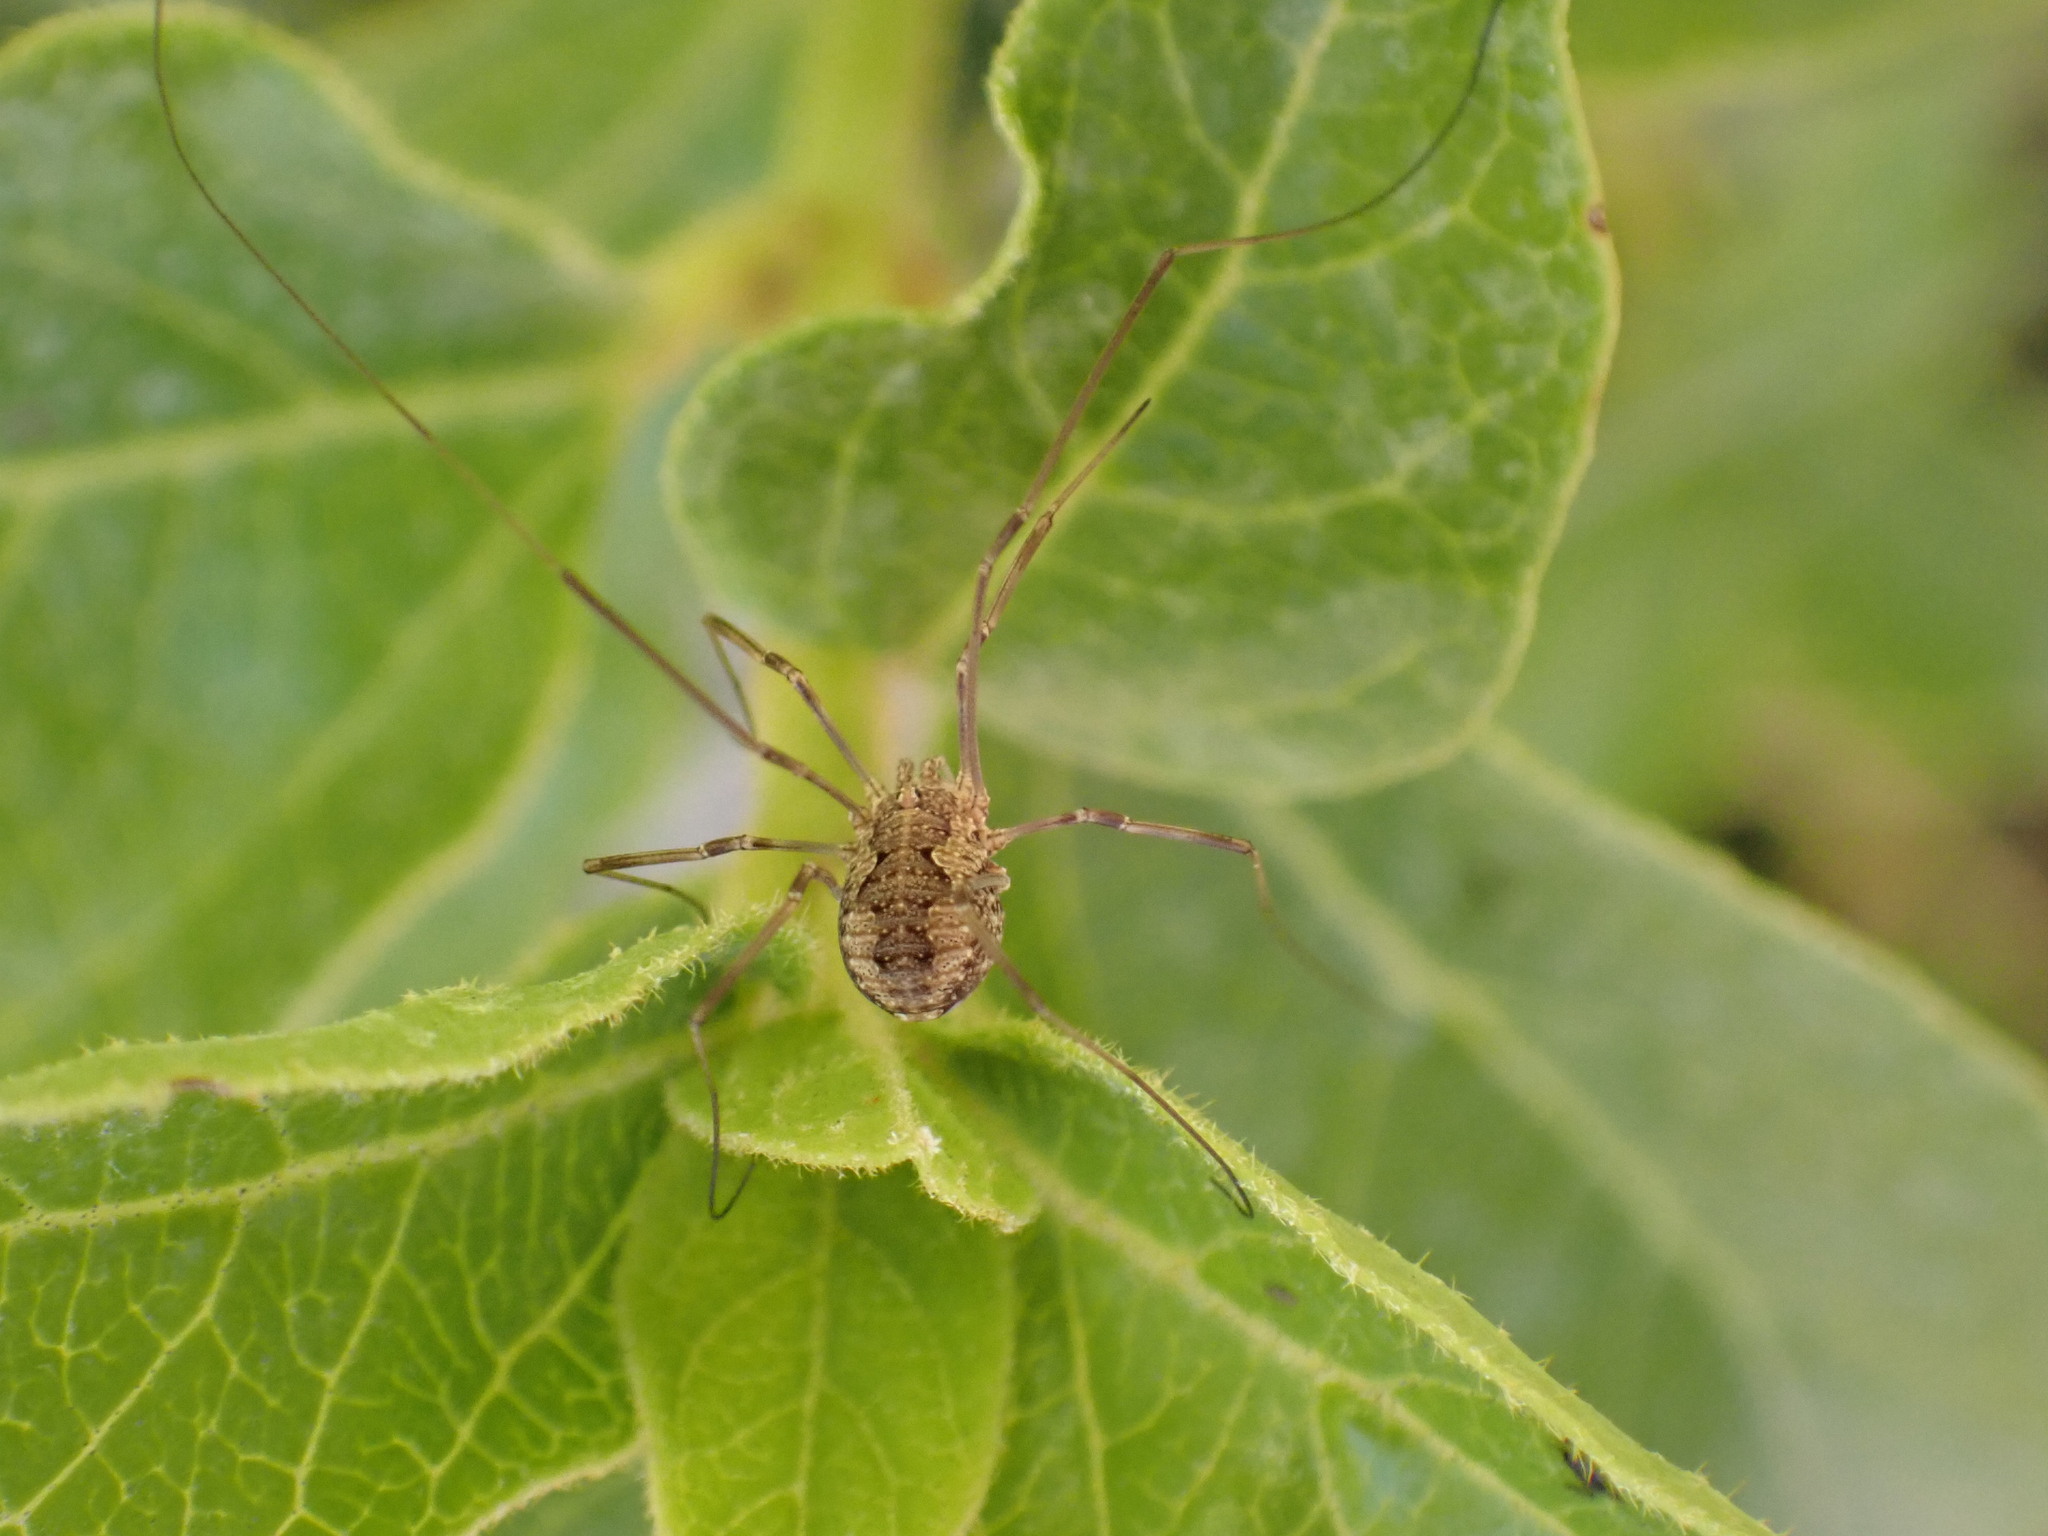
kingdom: Animalia
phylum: Arthropoda
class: Arachnida
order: Opiliones
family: Phalangiidae
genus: Phalangium
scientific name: Phalangium opilio
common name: Daddy longleg
